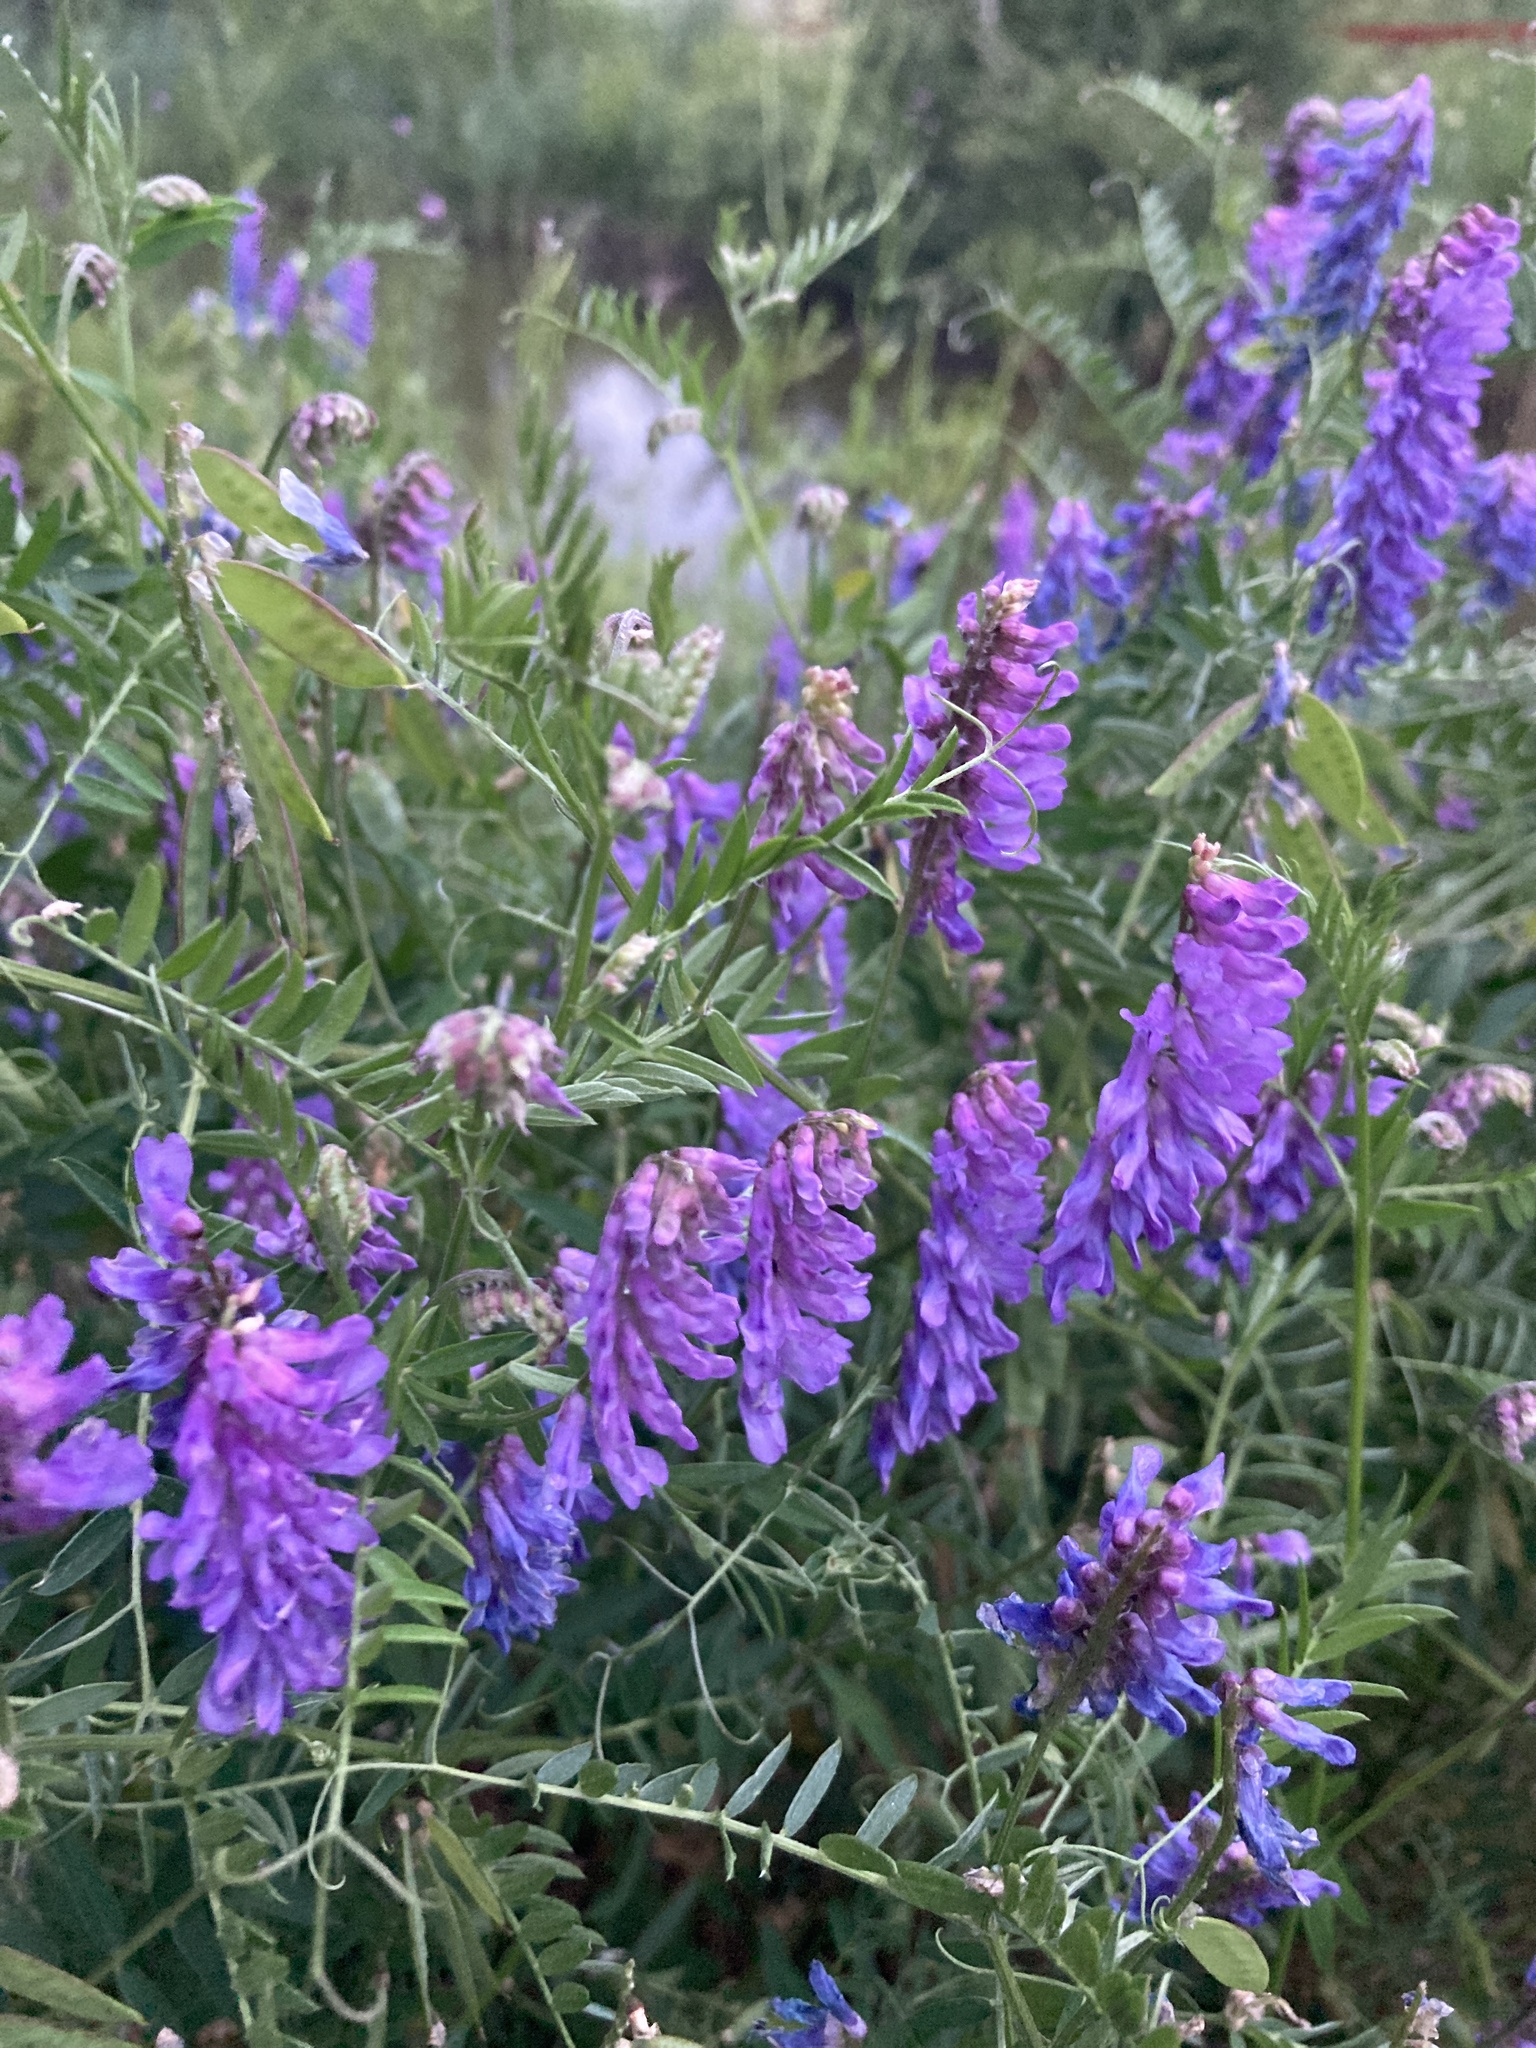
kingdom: Plantae
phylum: Tracheophyta
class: Magnoliopsida
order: Fabales
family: Fabaceae
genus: Vicia
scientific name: Vicia cracca
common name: Bird vetch
